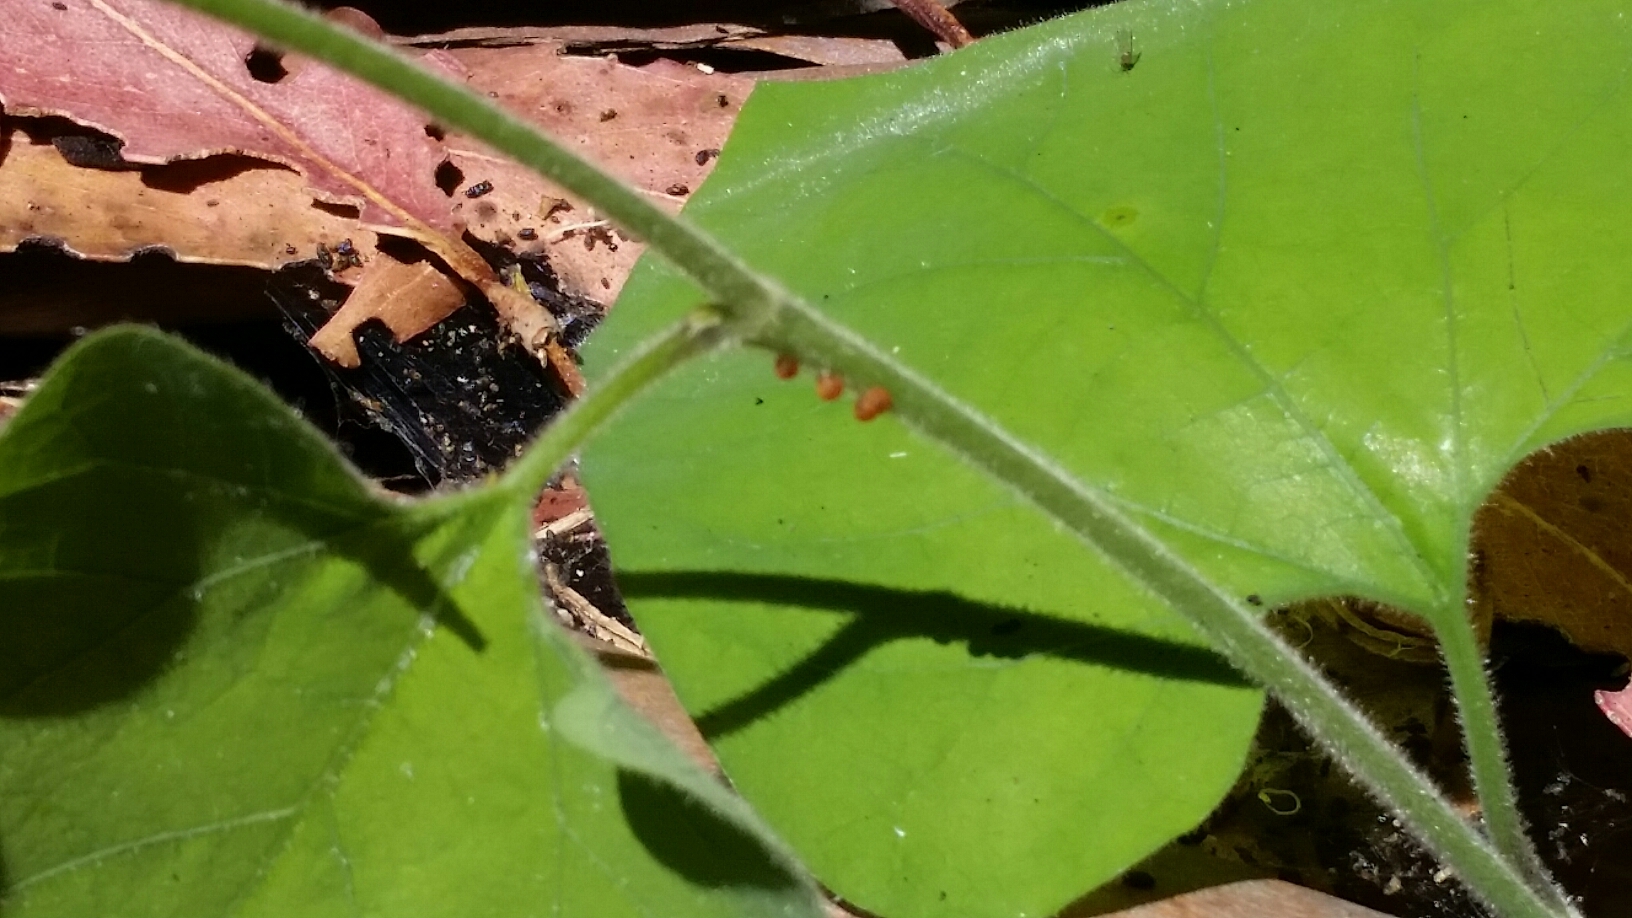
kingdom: Animalia
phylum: Arthropoda
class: Insecta
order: Lepidoptera
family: Papilionidae
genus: Battus
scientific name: Battus philenor
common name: Pipevine swallowtail
